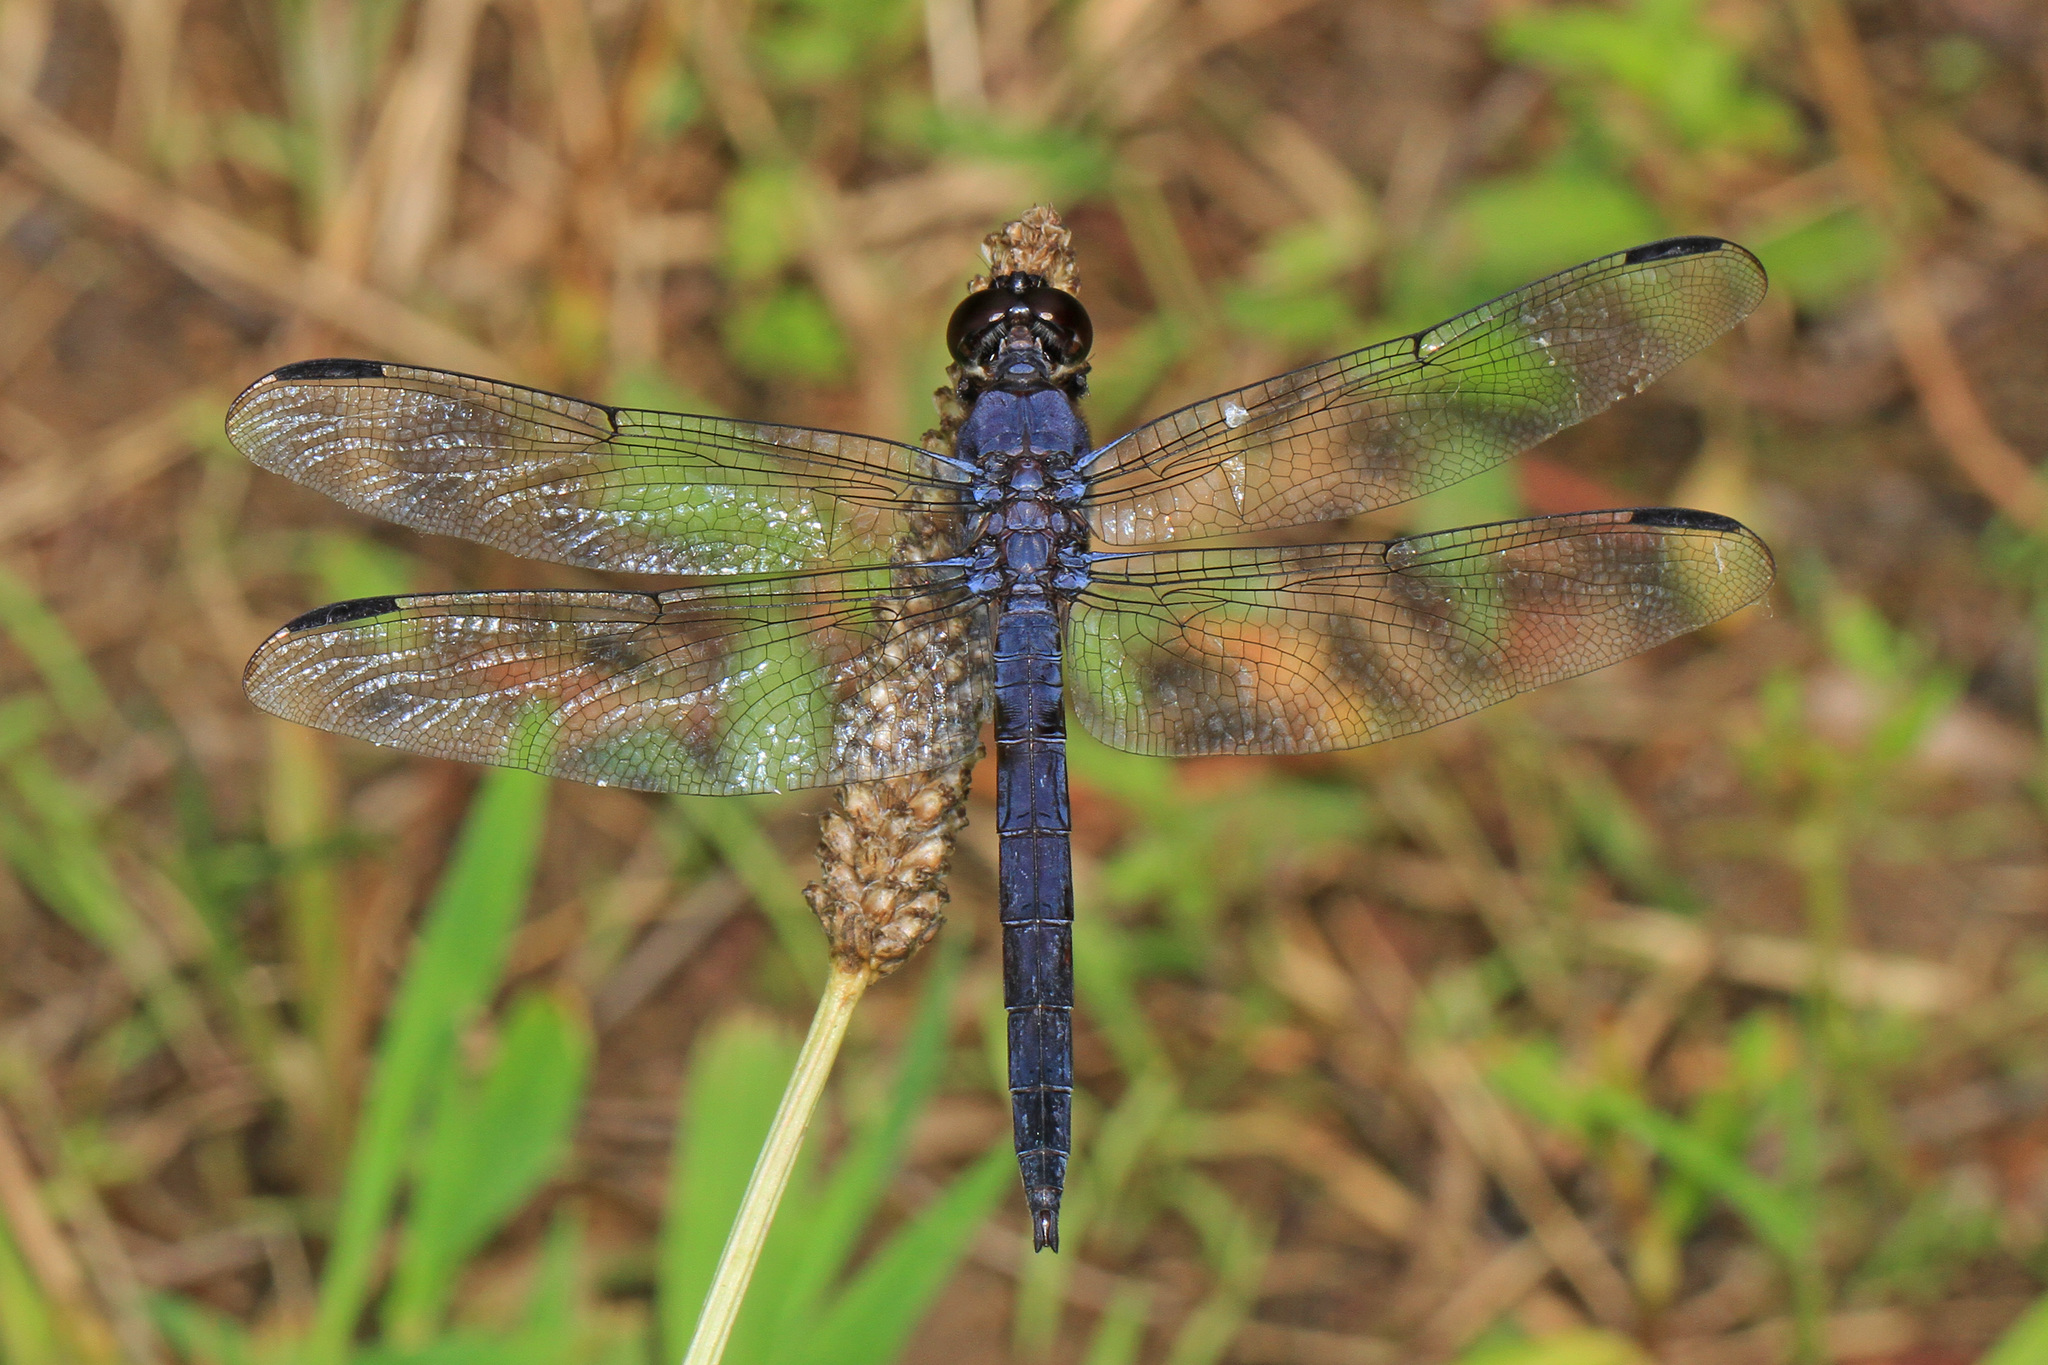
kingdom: Animalia
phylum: Arthropoda
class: Insecta
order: Odonata
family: Libellulidae
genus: Libellula
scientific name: Libellula incesta
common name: Slaty skimmer
